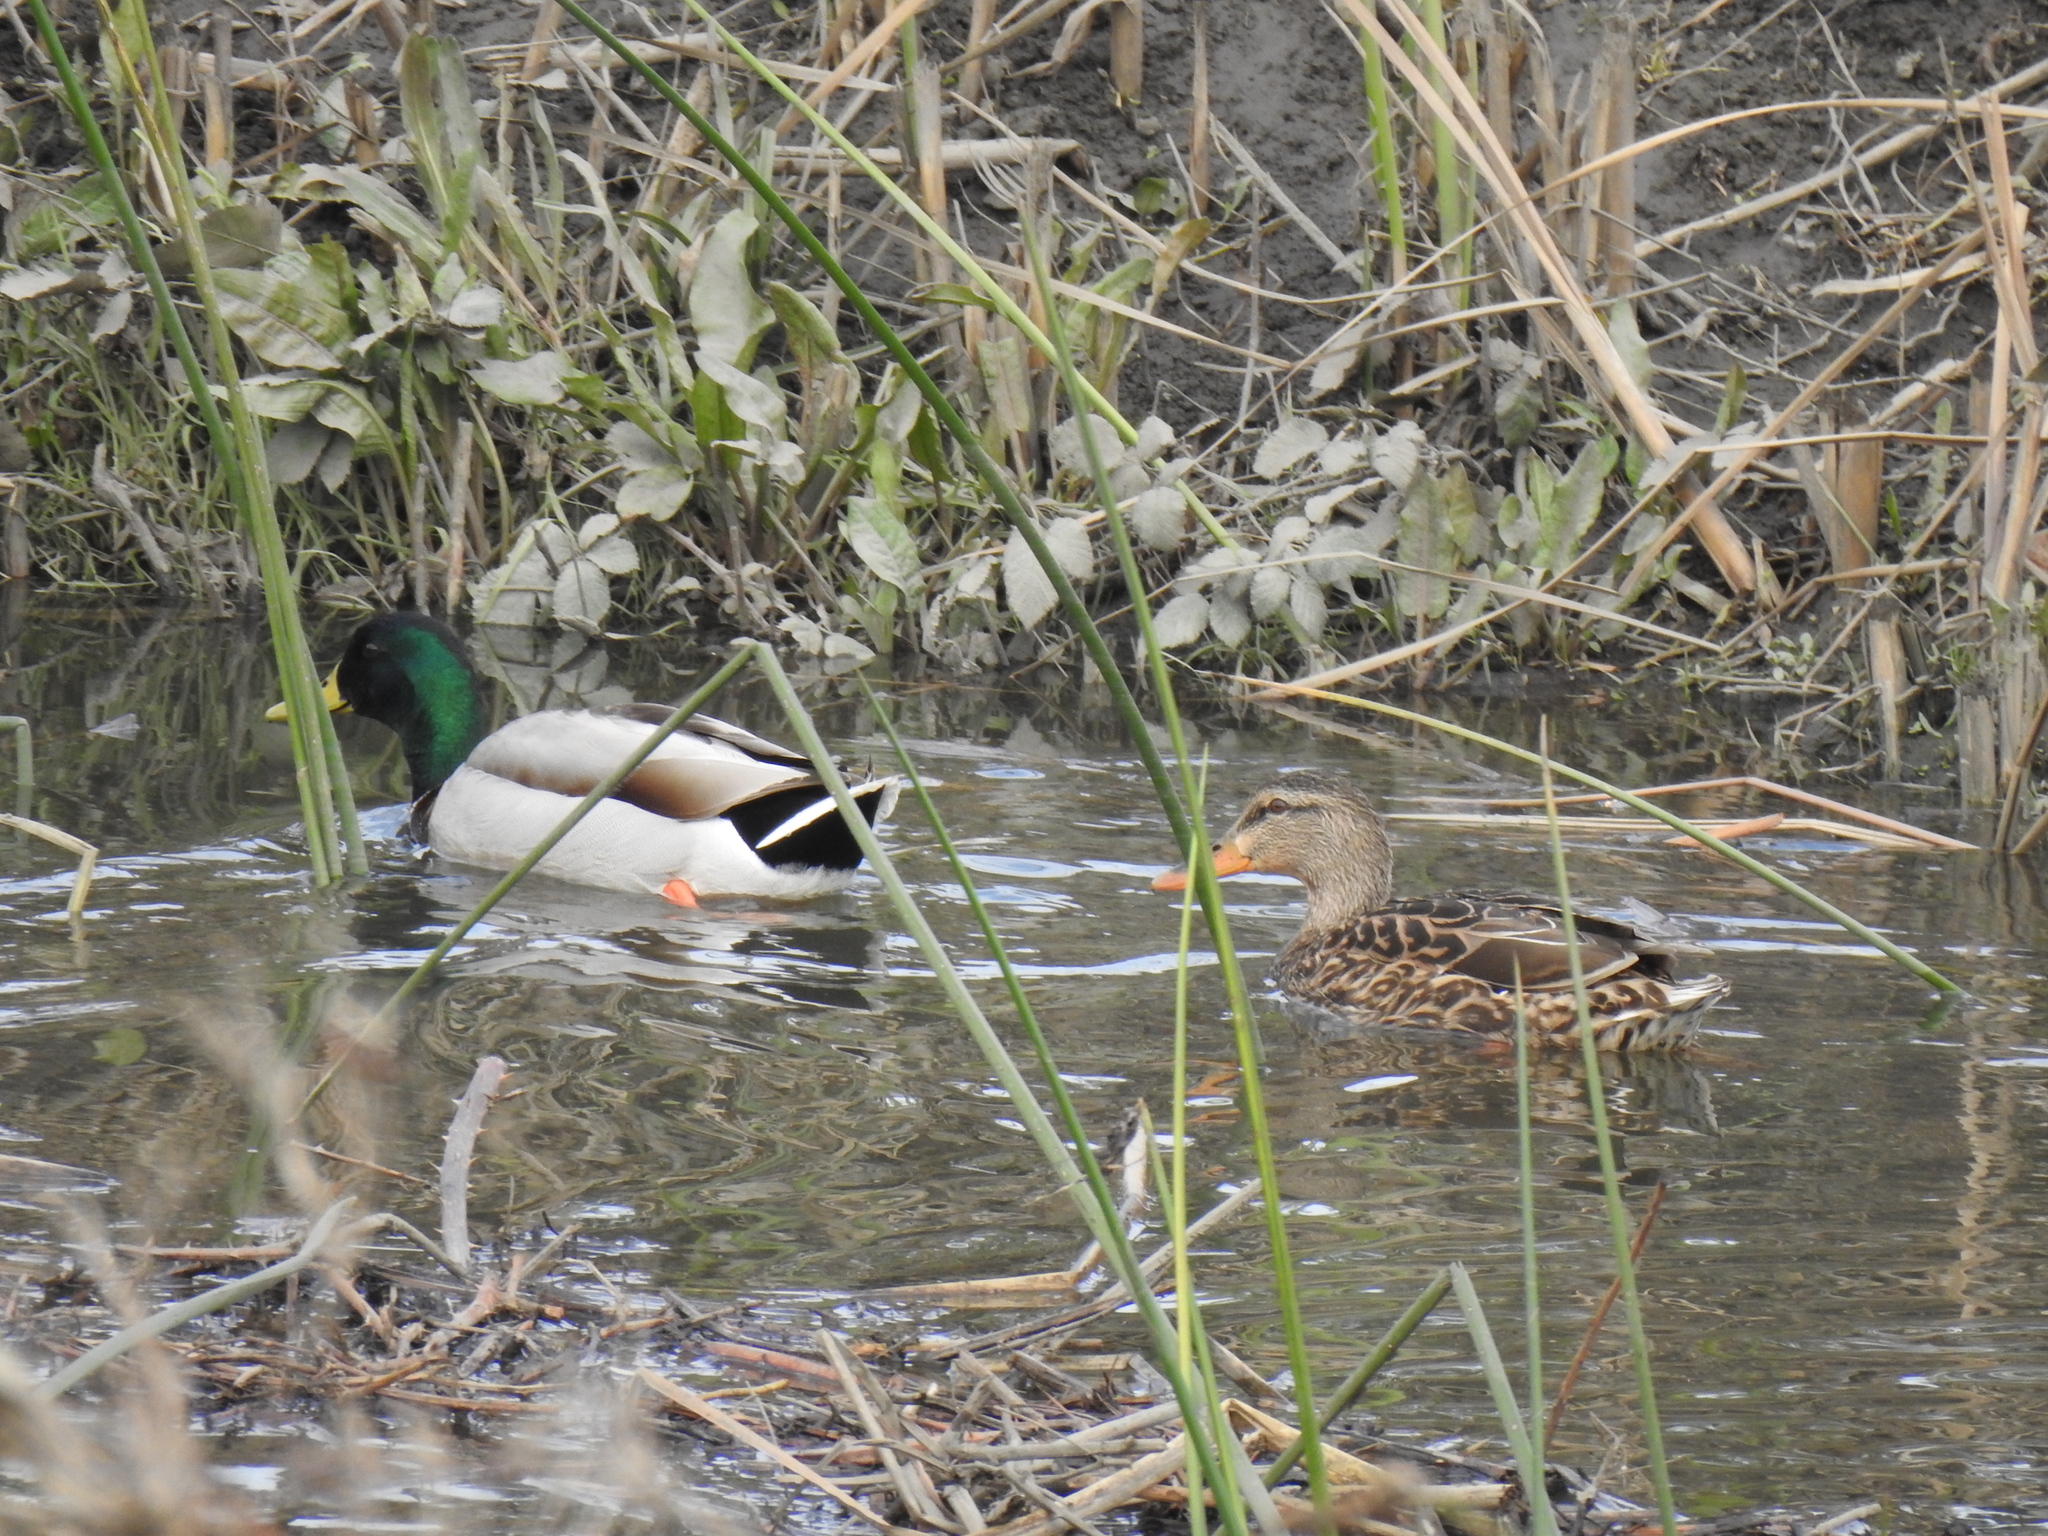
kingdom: Animalia
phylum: Chordata
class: Aves
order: Anseriformes
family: Anatidae
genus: Anas
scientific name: Anas platyrhynchos
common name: Mallard
